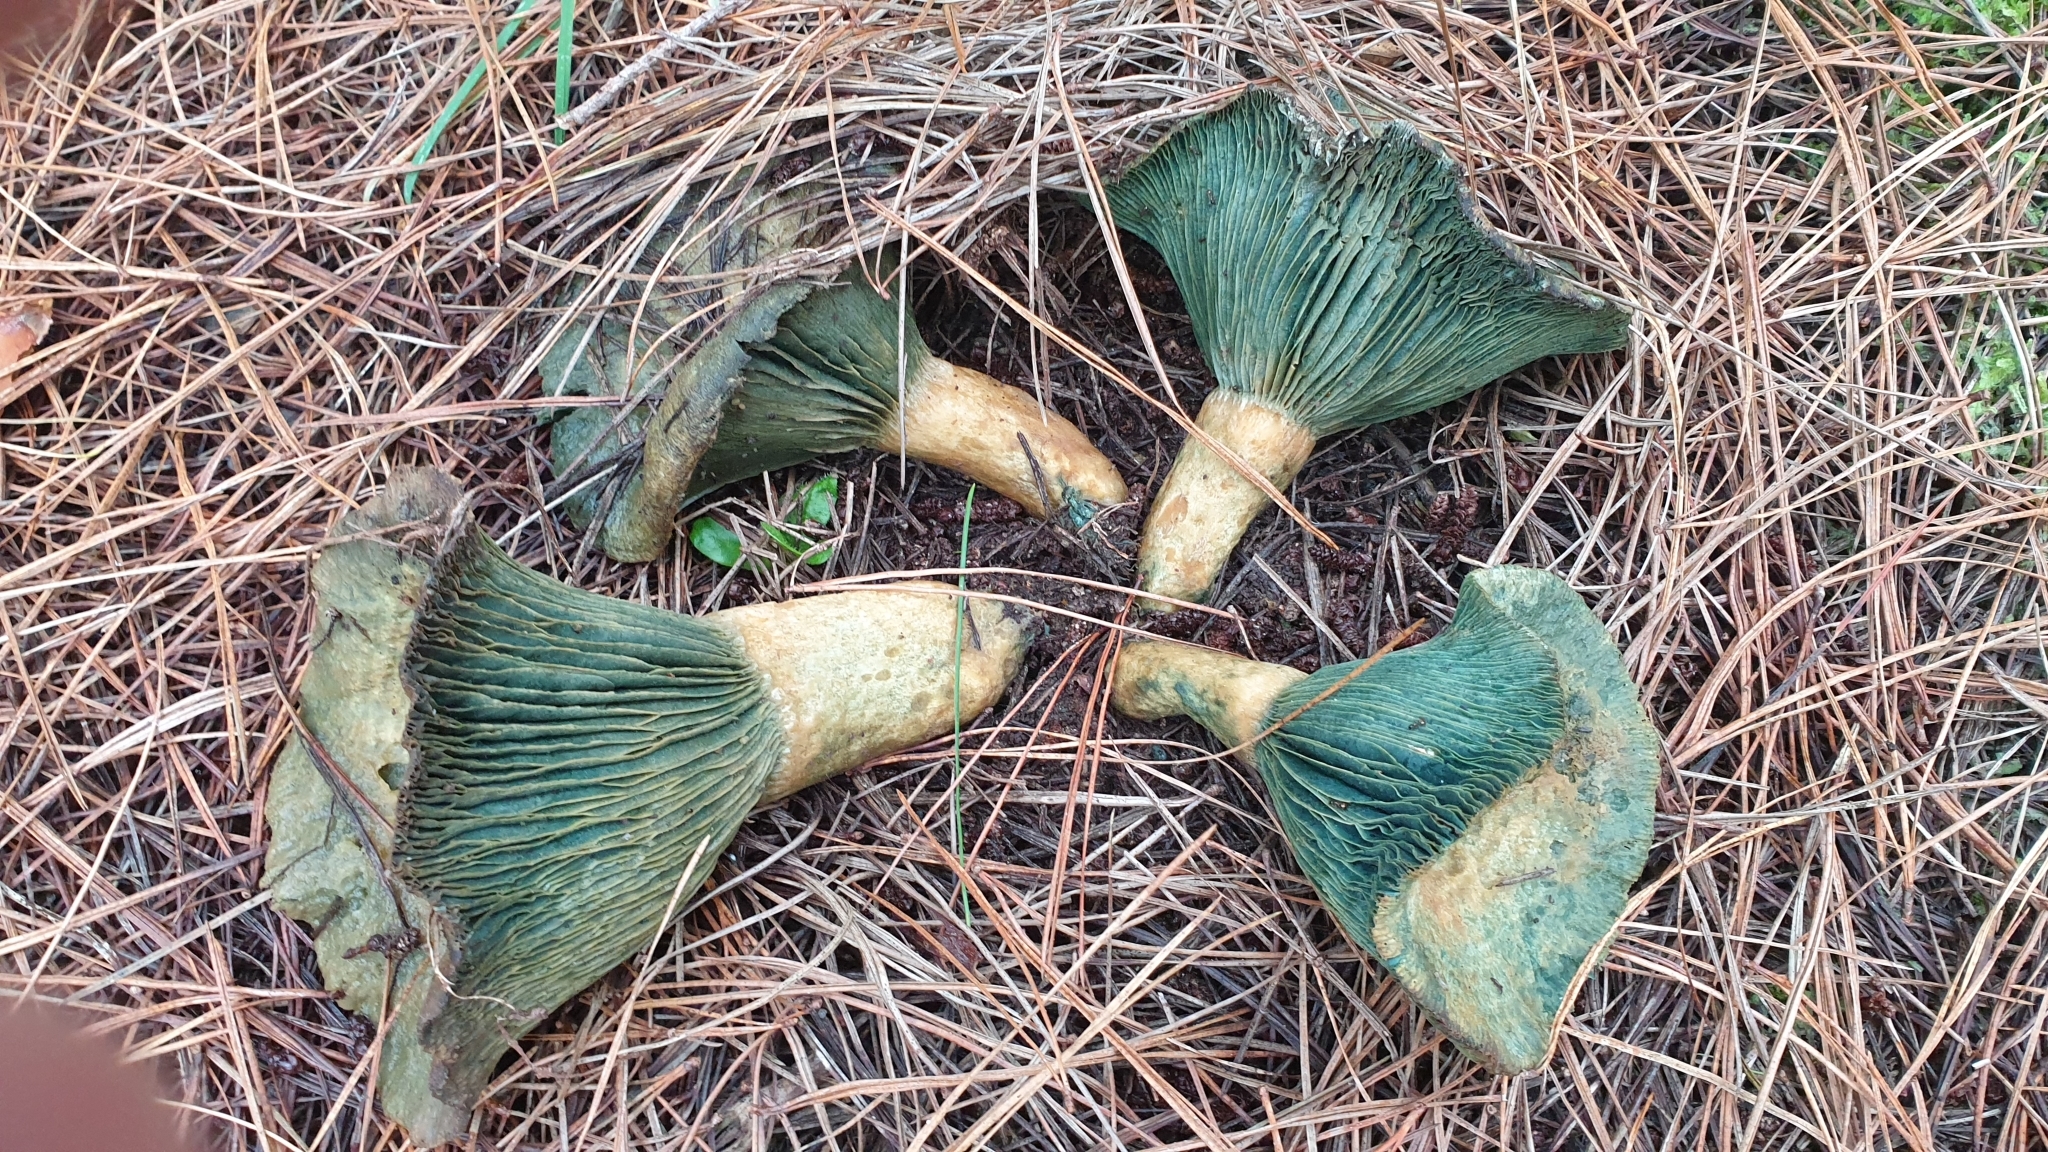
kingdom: Fungi
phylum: Basidiomycota
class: Agaricomycetes
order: Russulales
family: Russulaceae
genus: Lactarius
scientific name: Lactarius deliciosus
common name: Saffron milk-cap
